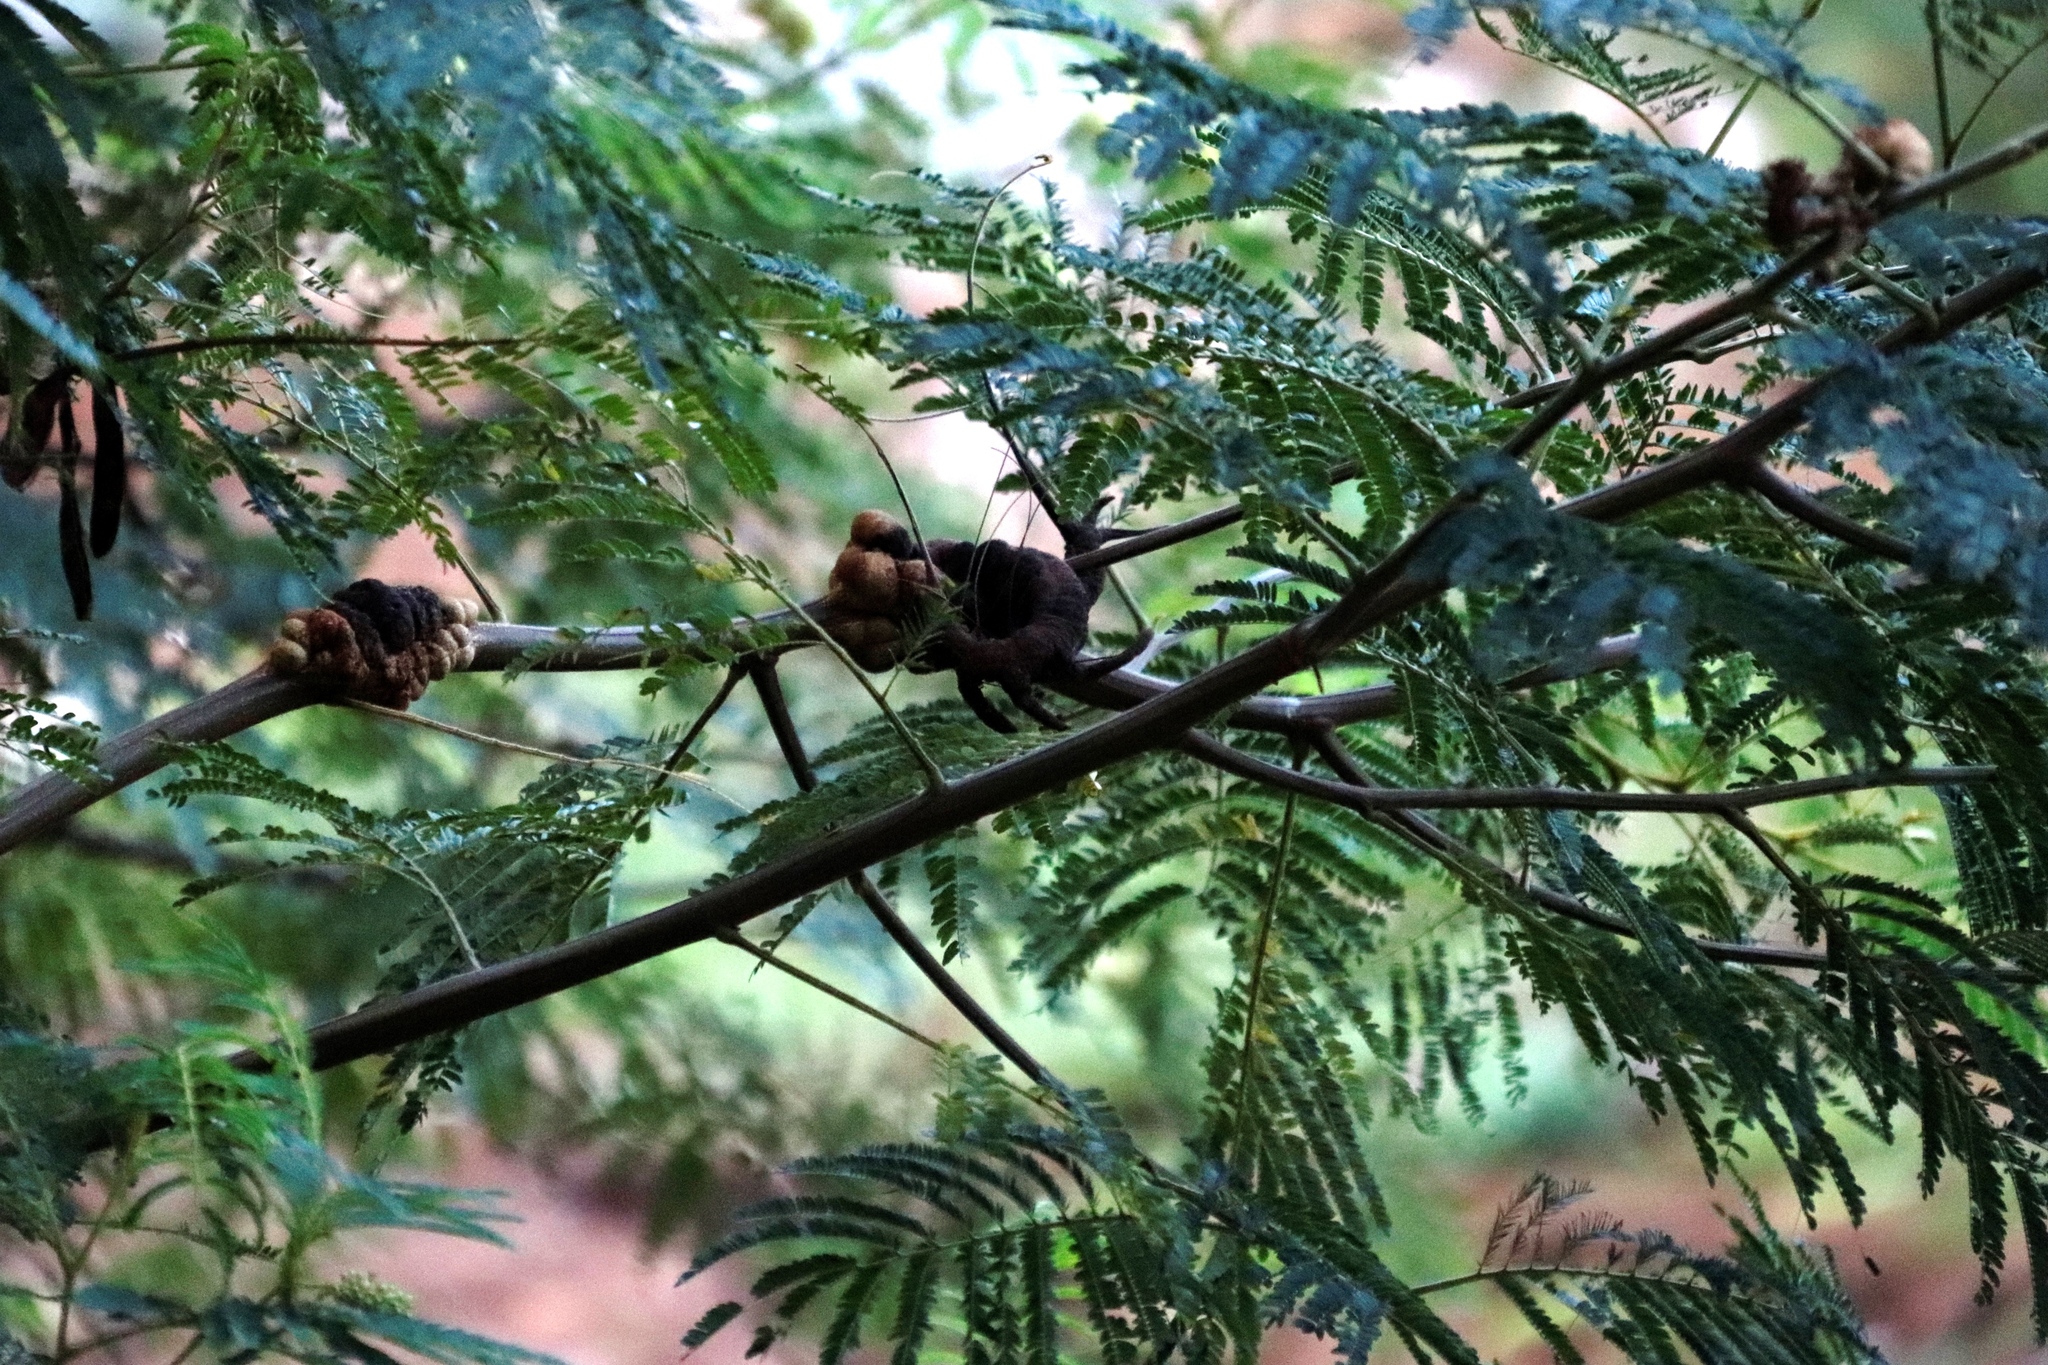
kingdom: Plantae
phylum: Tracheophyta
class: Magnoliopsida
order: Fabales
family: Fabaceae
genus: Paraserianthes
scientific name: Paraserianthes lophantha
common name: Plume albizia
